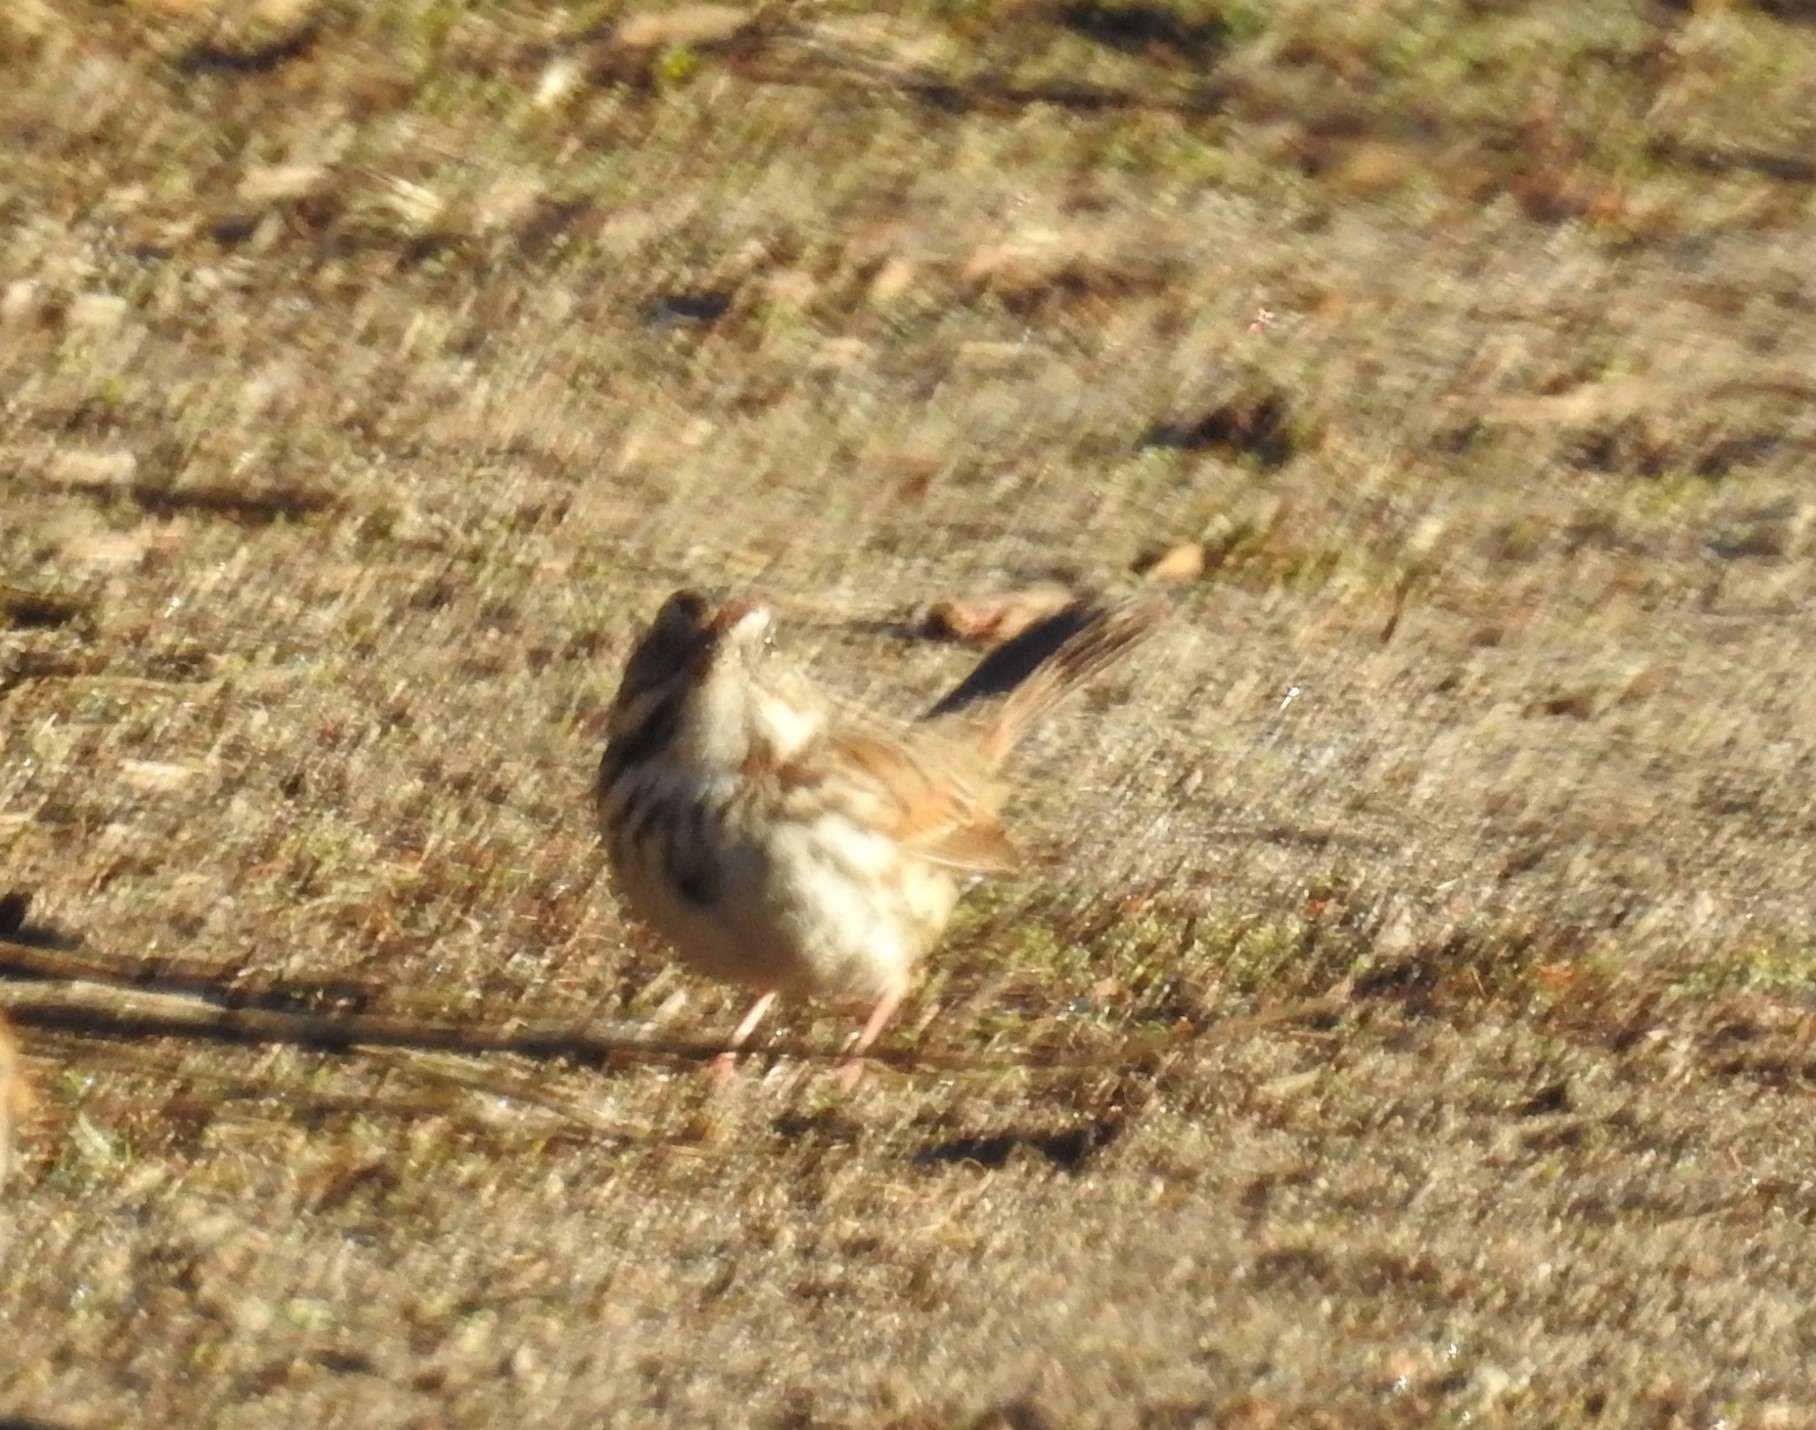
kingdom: Animalia
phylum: Chordata
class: Aves
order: Passeriformes
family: Passerellidae
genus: Melospiza
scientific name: Melospiza melodia
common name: Song sparrow
